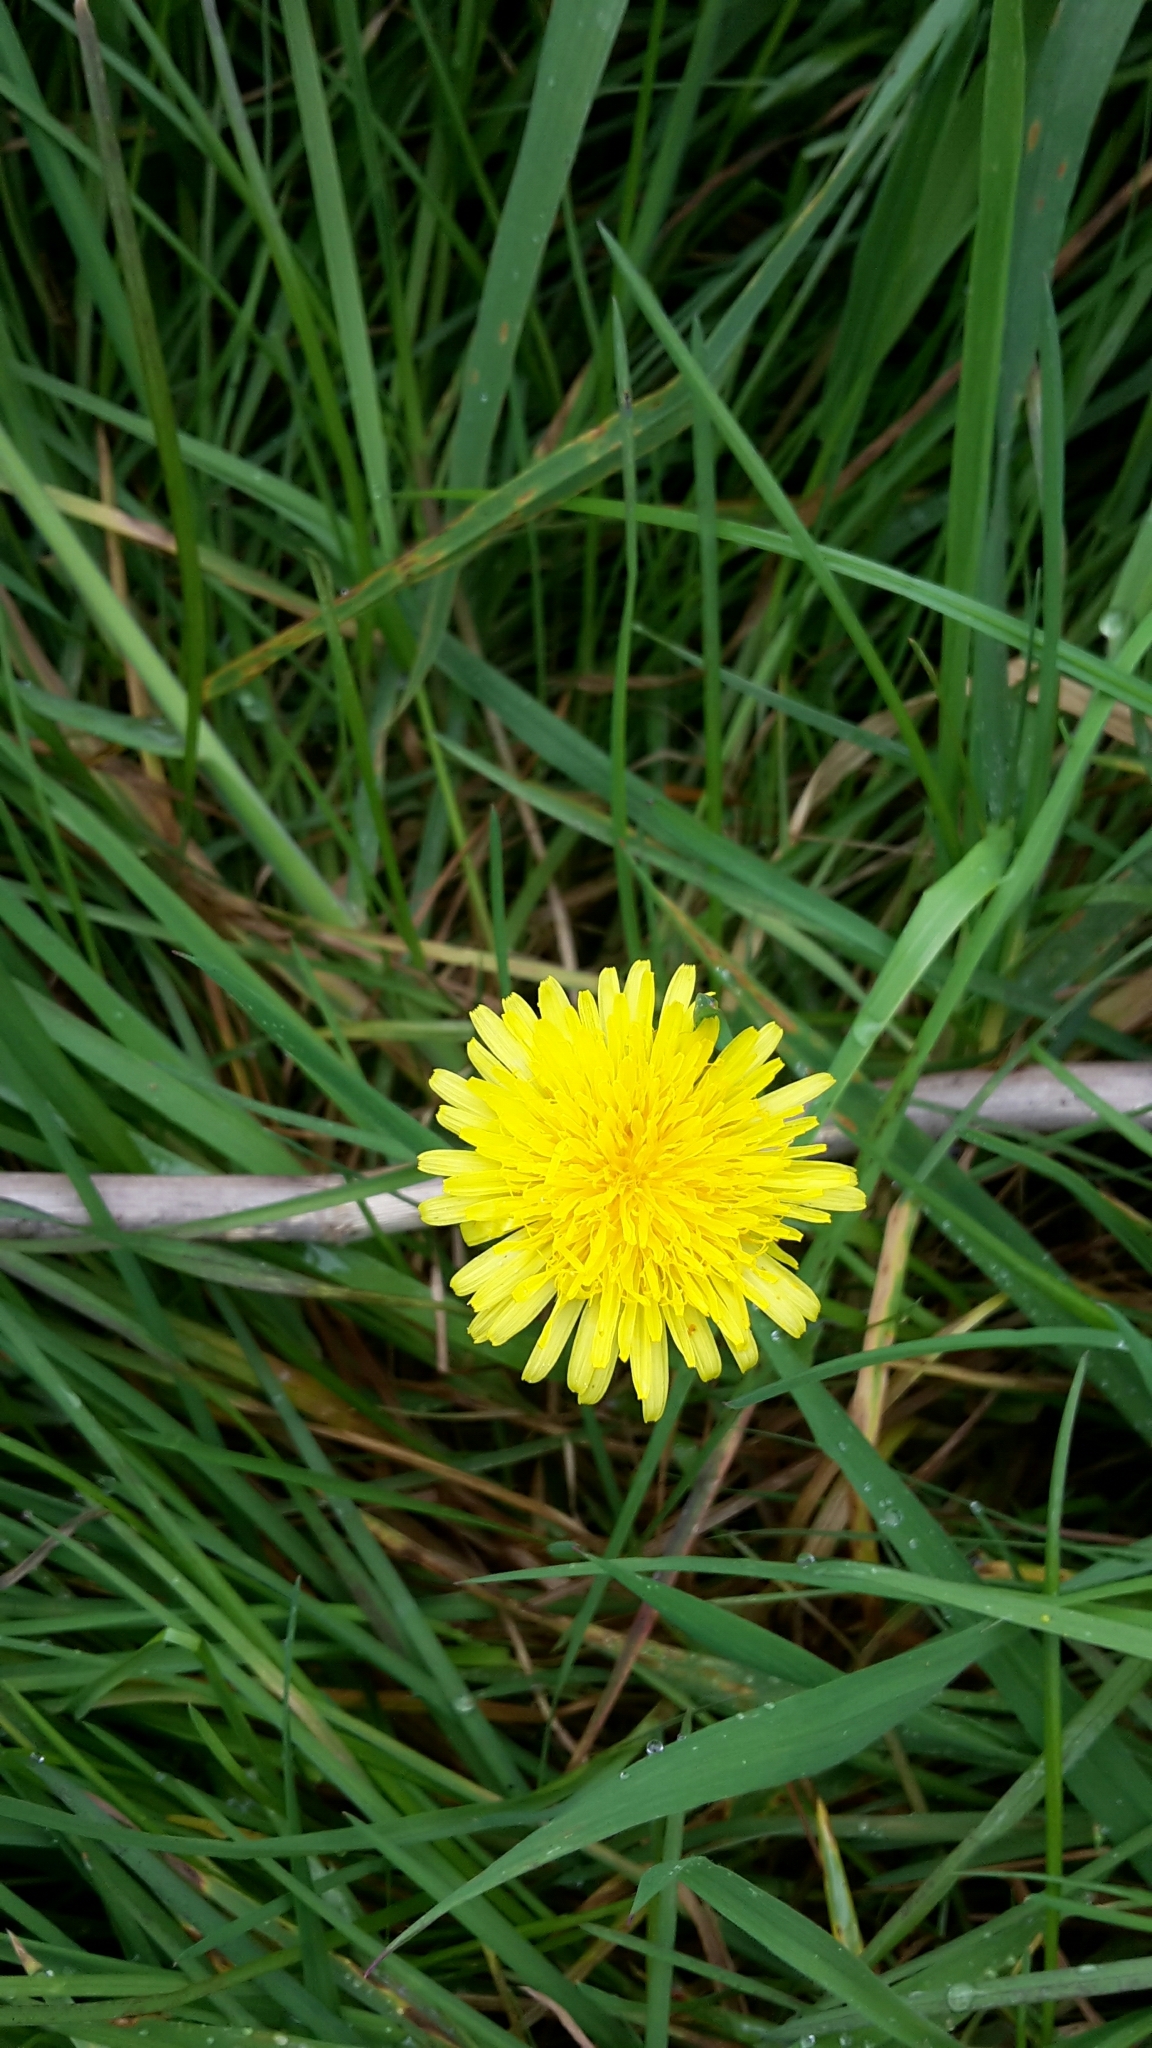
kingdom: Plantae
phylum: Tracheophyta
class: Magnoliopsida
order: Asterales
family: Asteraceae
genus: Taraxacum
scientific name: Taraxacum officinale
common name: Common dandelion
